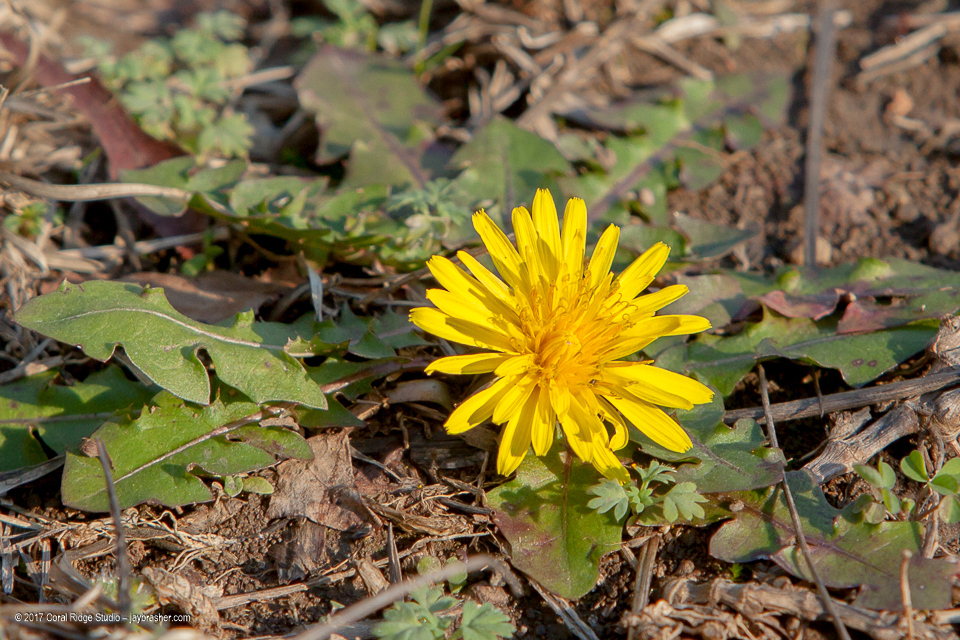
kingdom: Plantae
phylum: Tracheophyta
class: Magnoliopsida
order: Asterales
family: Asteraceae
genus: Taraxacum
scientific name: Taraxacum officinale
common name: Common dandelion
